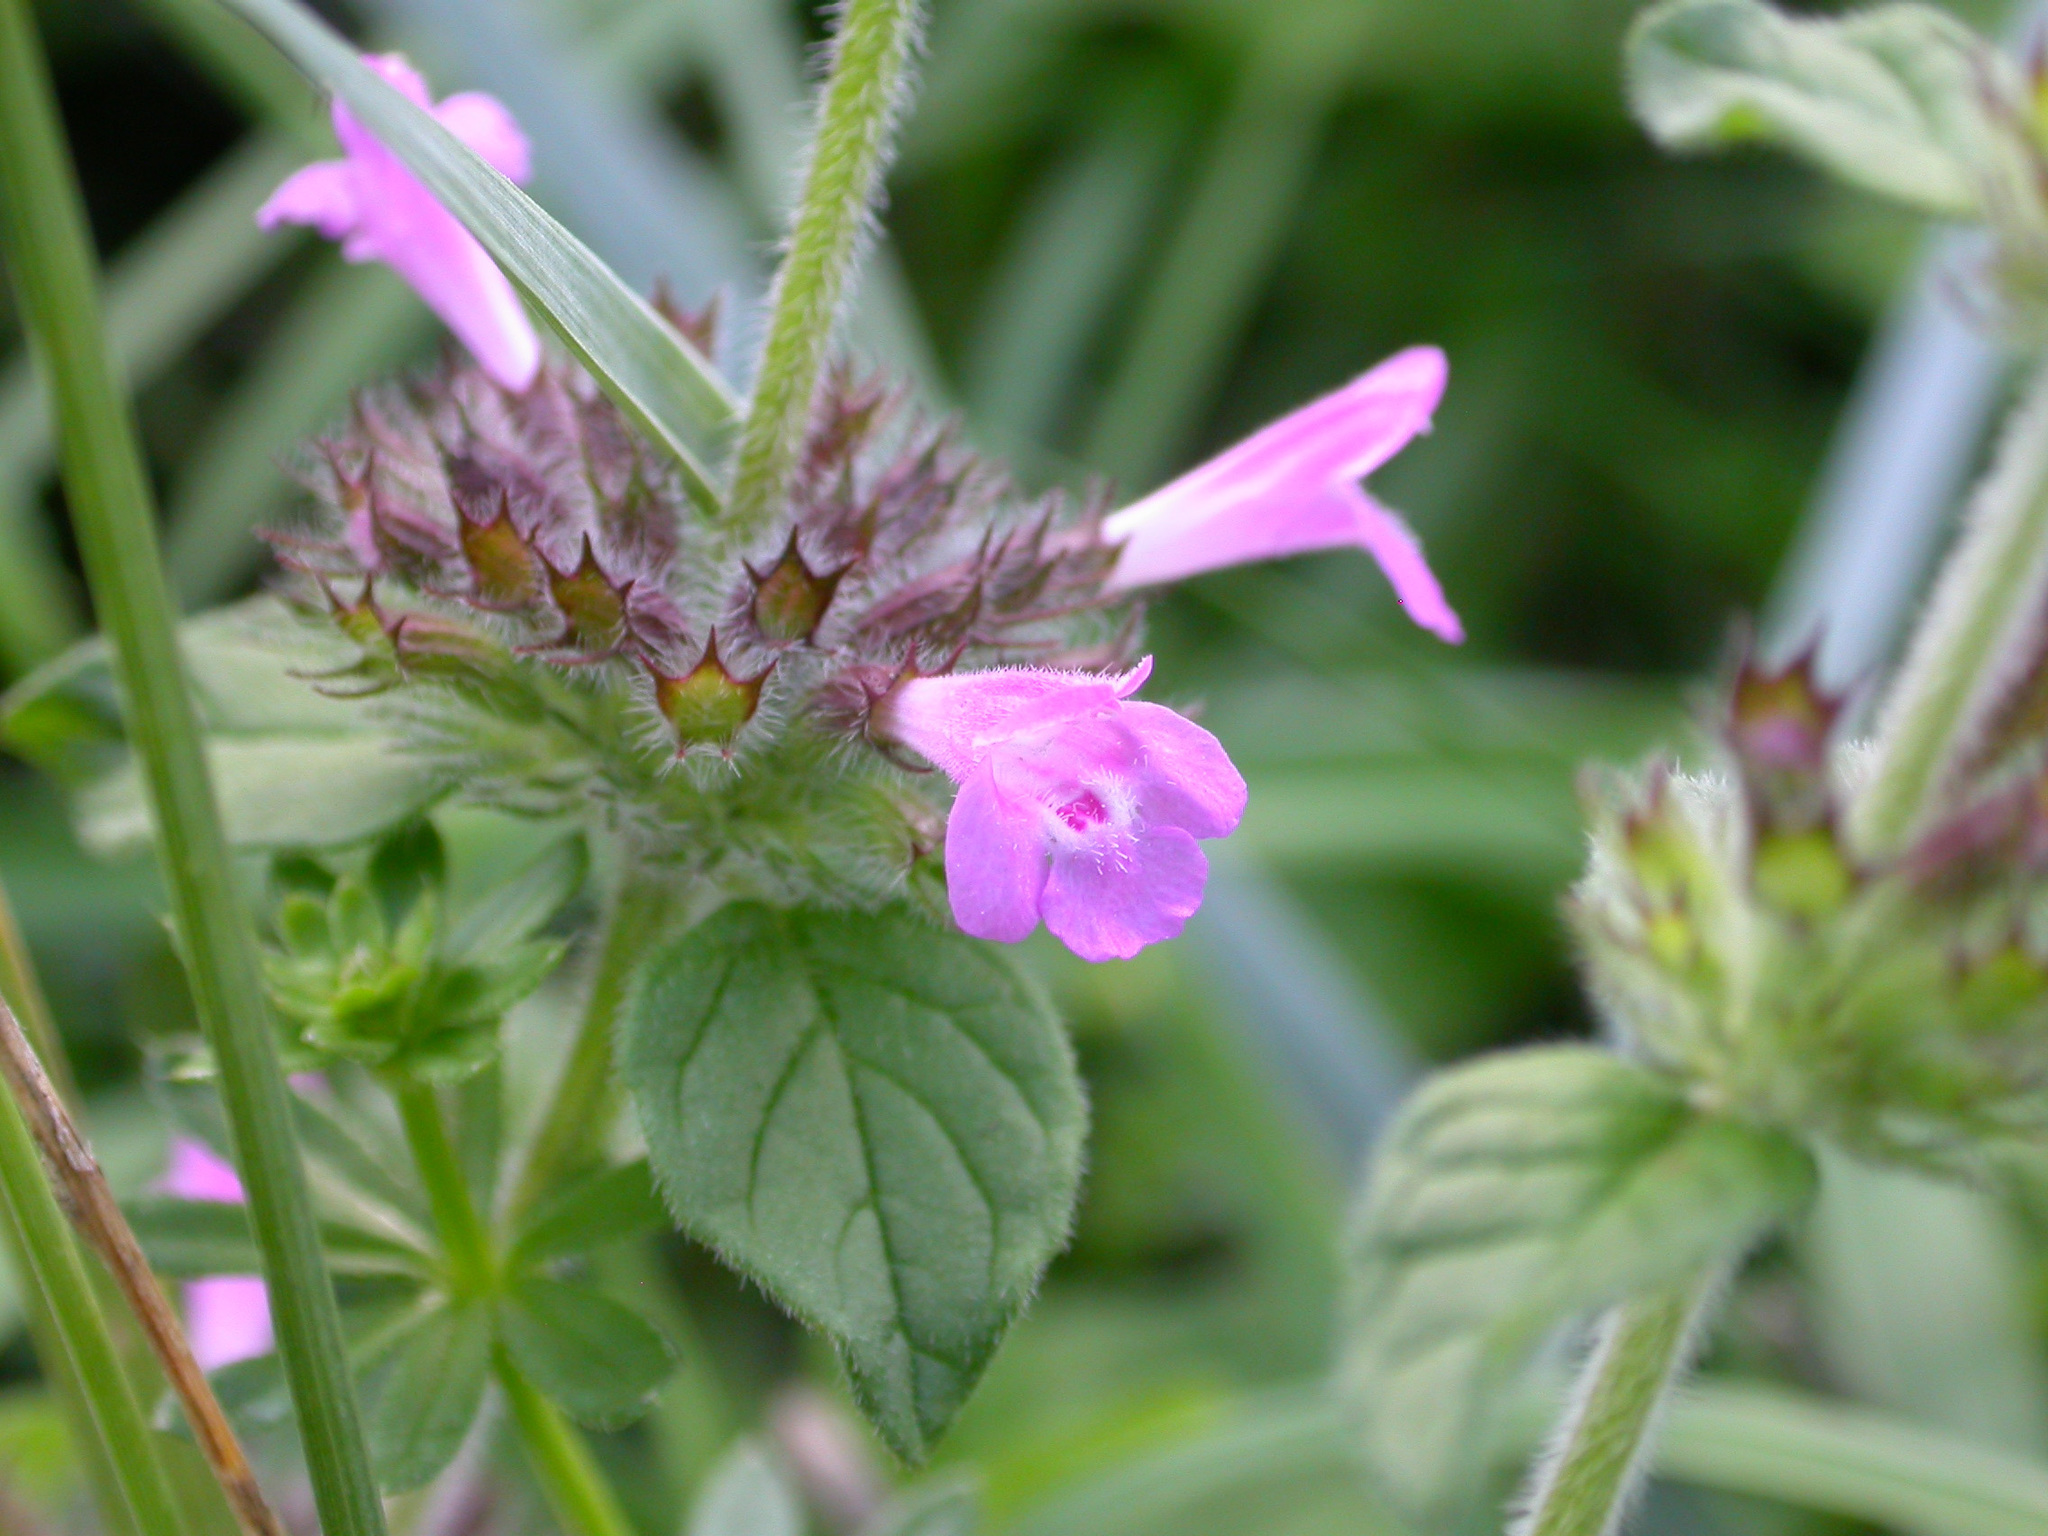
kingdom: Plantae
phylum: Tracheophyta
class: Magnoliopsida
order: Lamiales
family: Lamiaceae
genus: Clinopodium
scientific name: Clinopodium vulgare
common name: Wild basil
